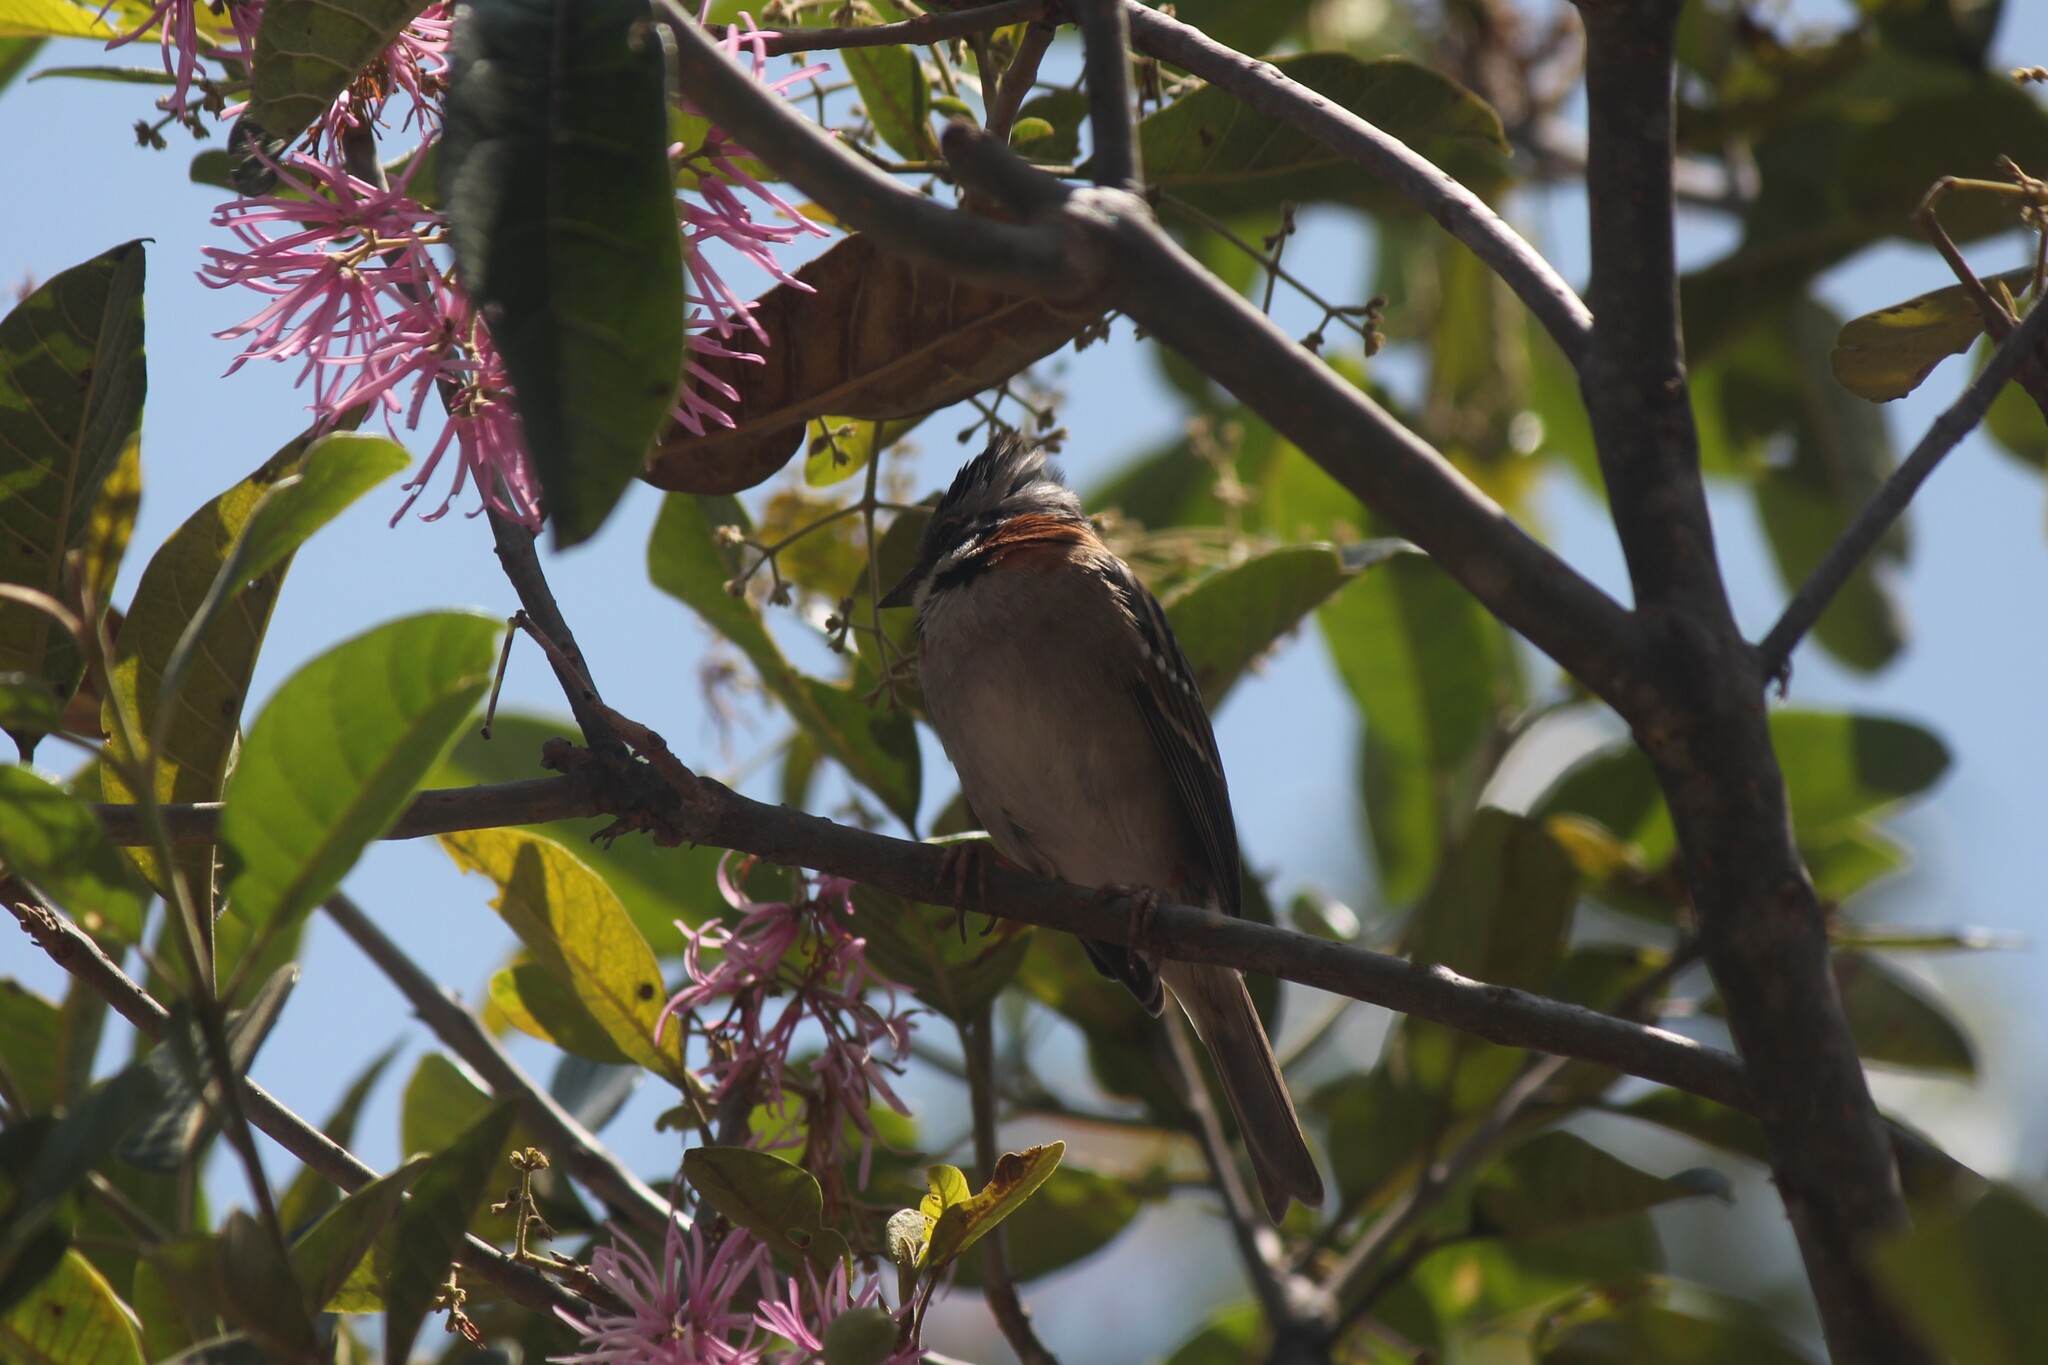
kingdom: Animalia
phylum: Chordata
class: Aves
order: Passeriformes
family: Passerellidae
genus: Zonotrichia
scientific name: Zonotrichia capensis
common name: Rufous-collared sparrow
